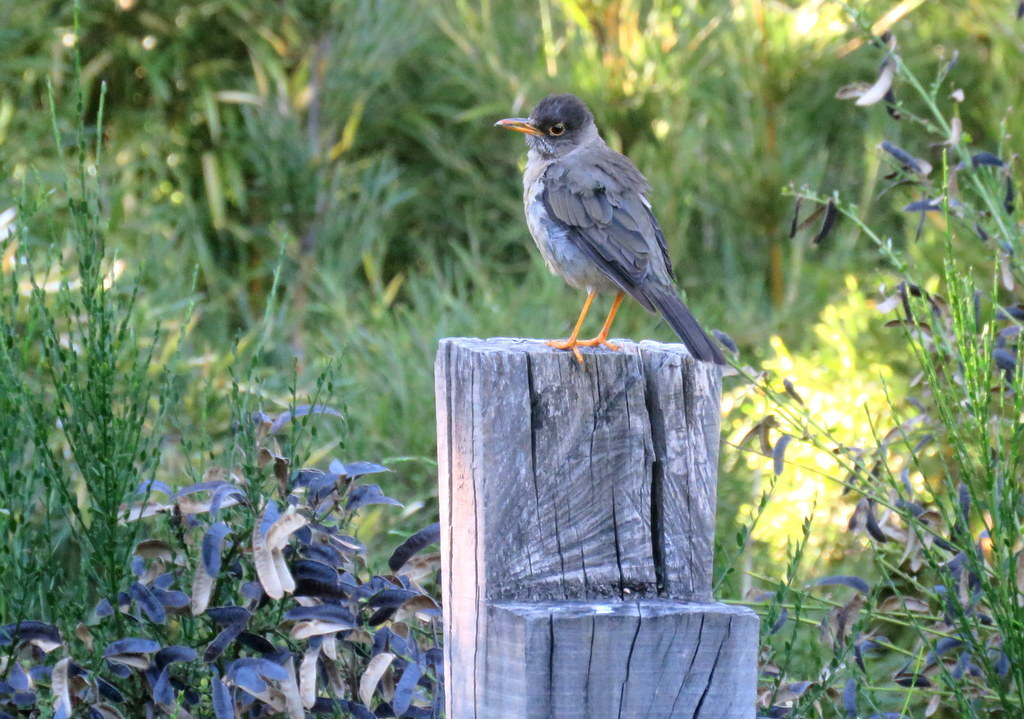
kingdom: Animalia
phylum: Chordata
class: Aves
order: Passeriformes
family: Turdidae
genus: Turdus
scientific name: Turdus falcklandii
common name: Austral thrush
